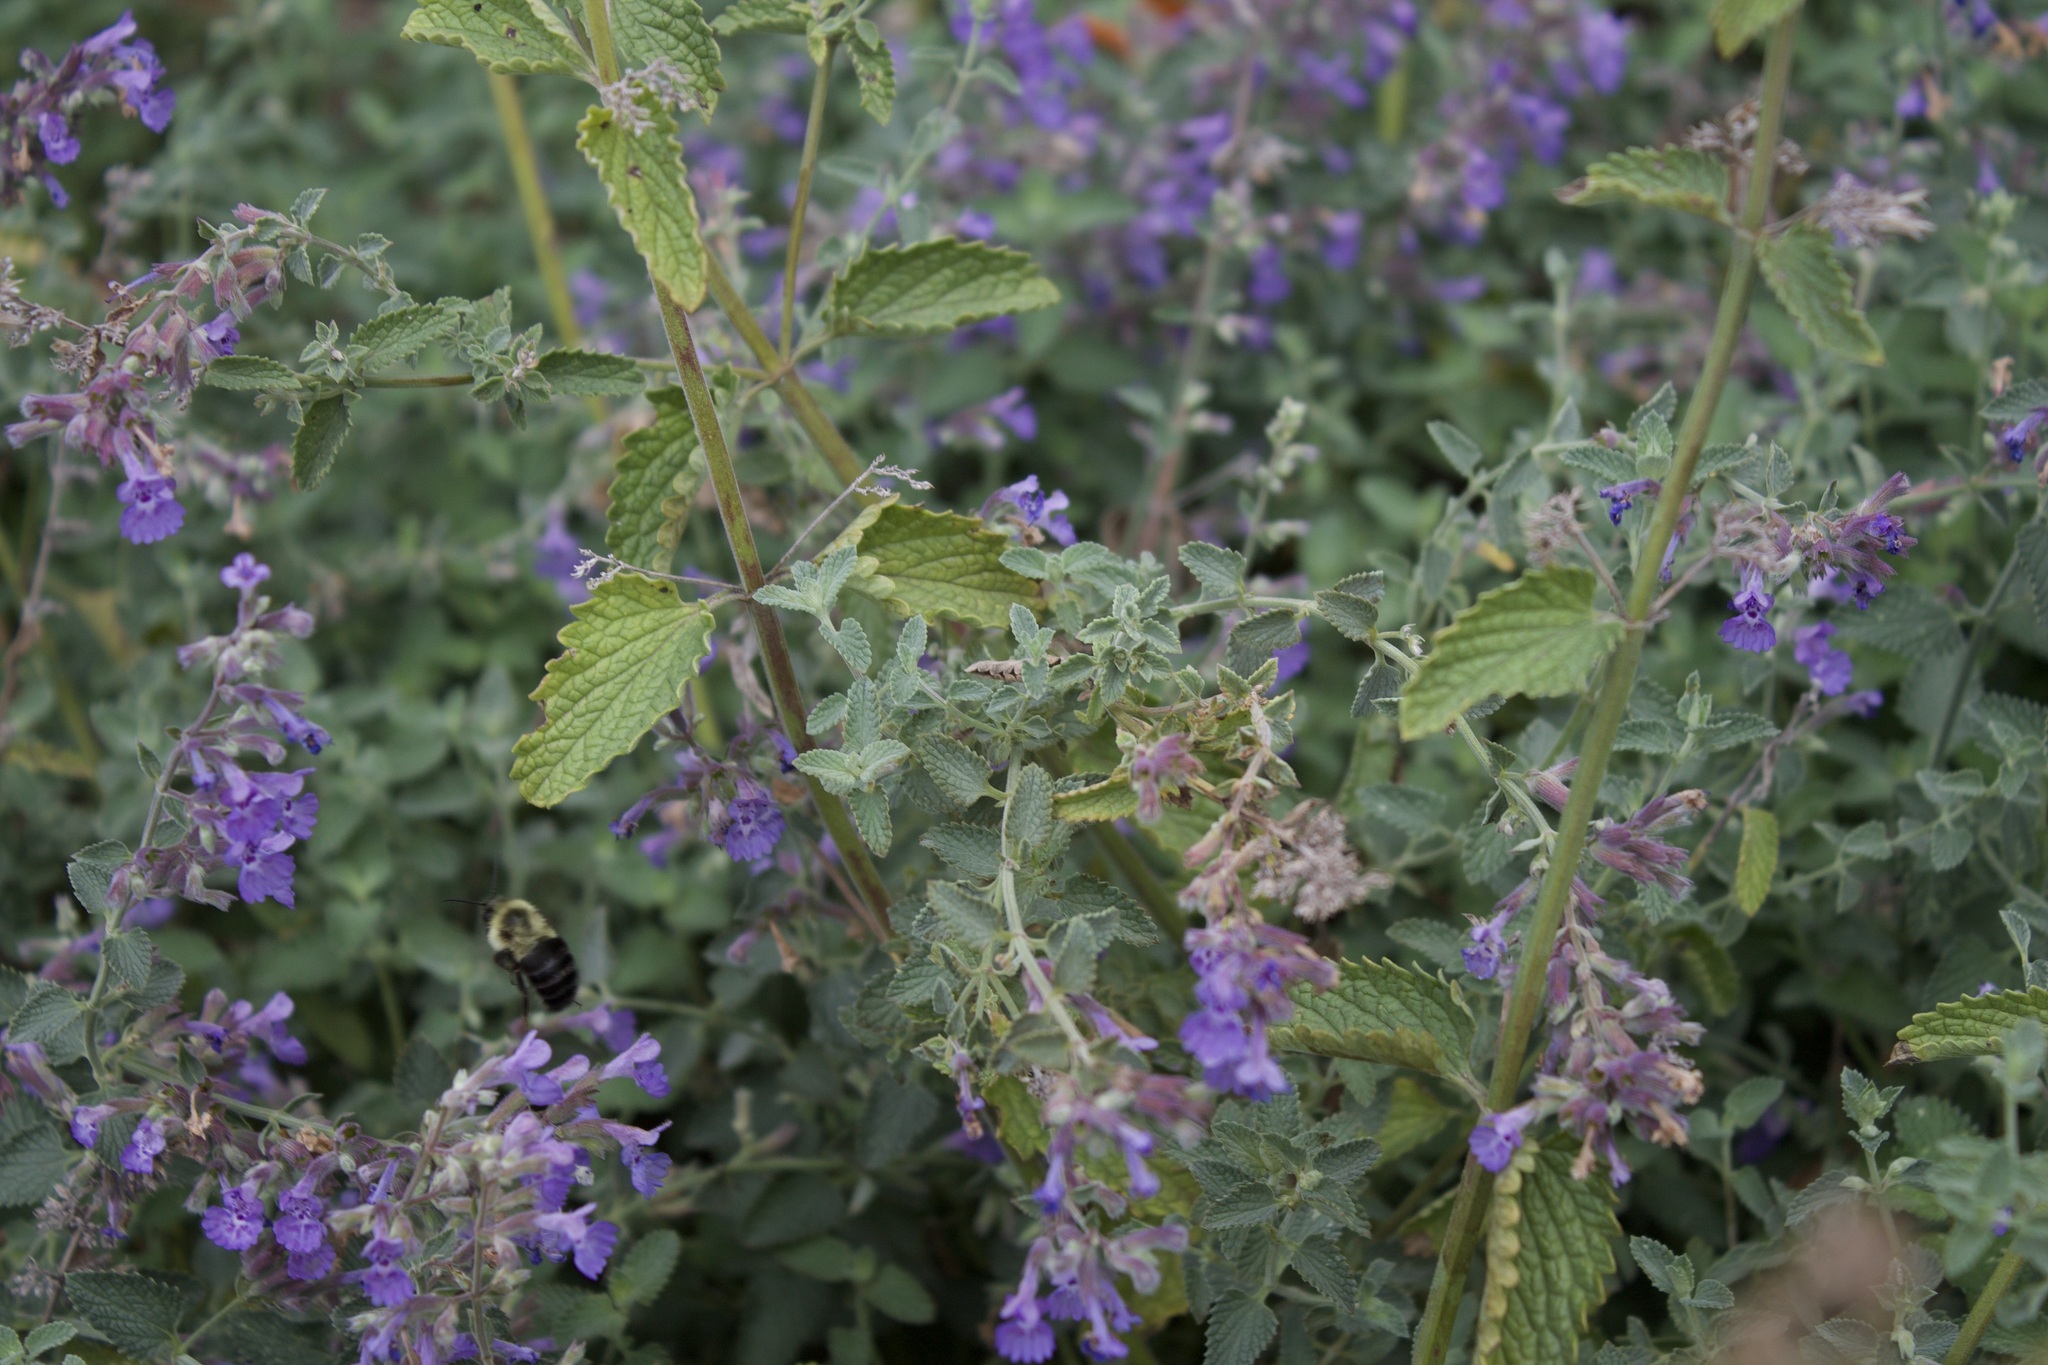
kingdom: Animalia
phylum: Arthropoda
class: Insecta
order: Hymenoptera
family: Apidae
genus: Bombus
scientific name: Bombus impatiens
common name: Common eastern bumble bee
